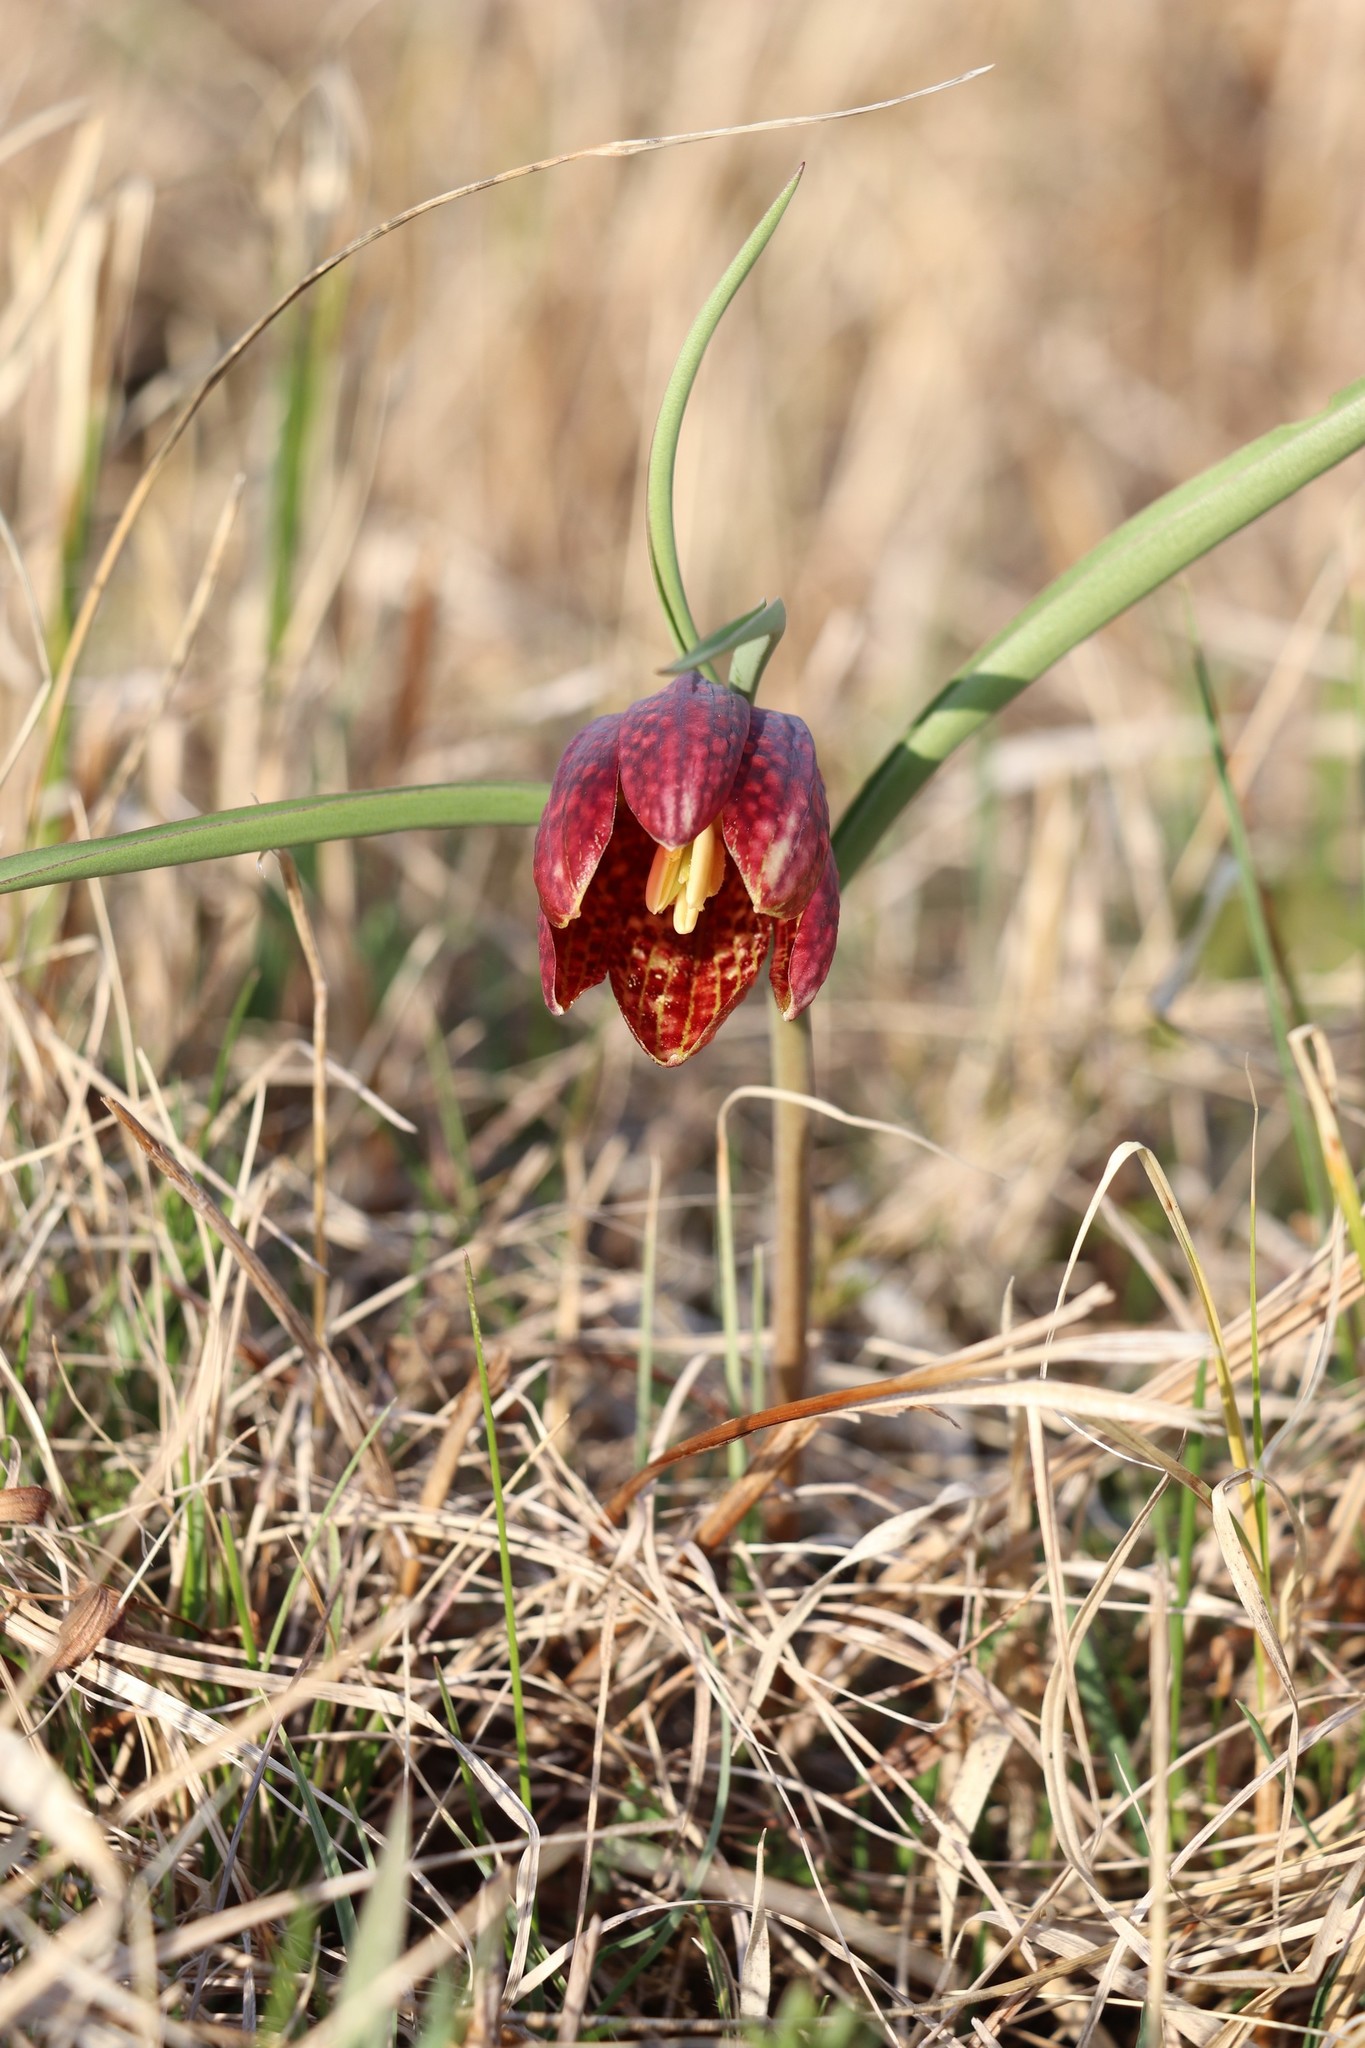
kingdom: Plantae
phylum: Tracheophyta
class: Liliopsida
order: Liliales
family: Liliaceae
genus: Fritillaria
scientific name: Fritillaria meleagris
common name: Fritillary
